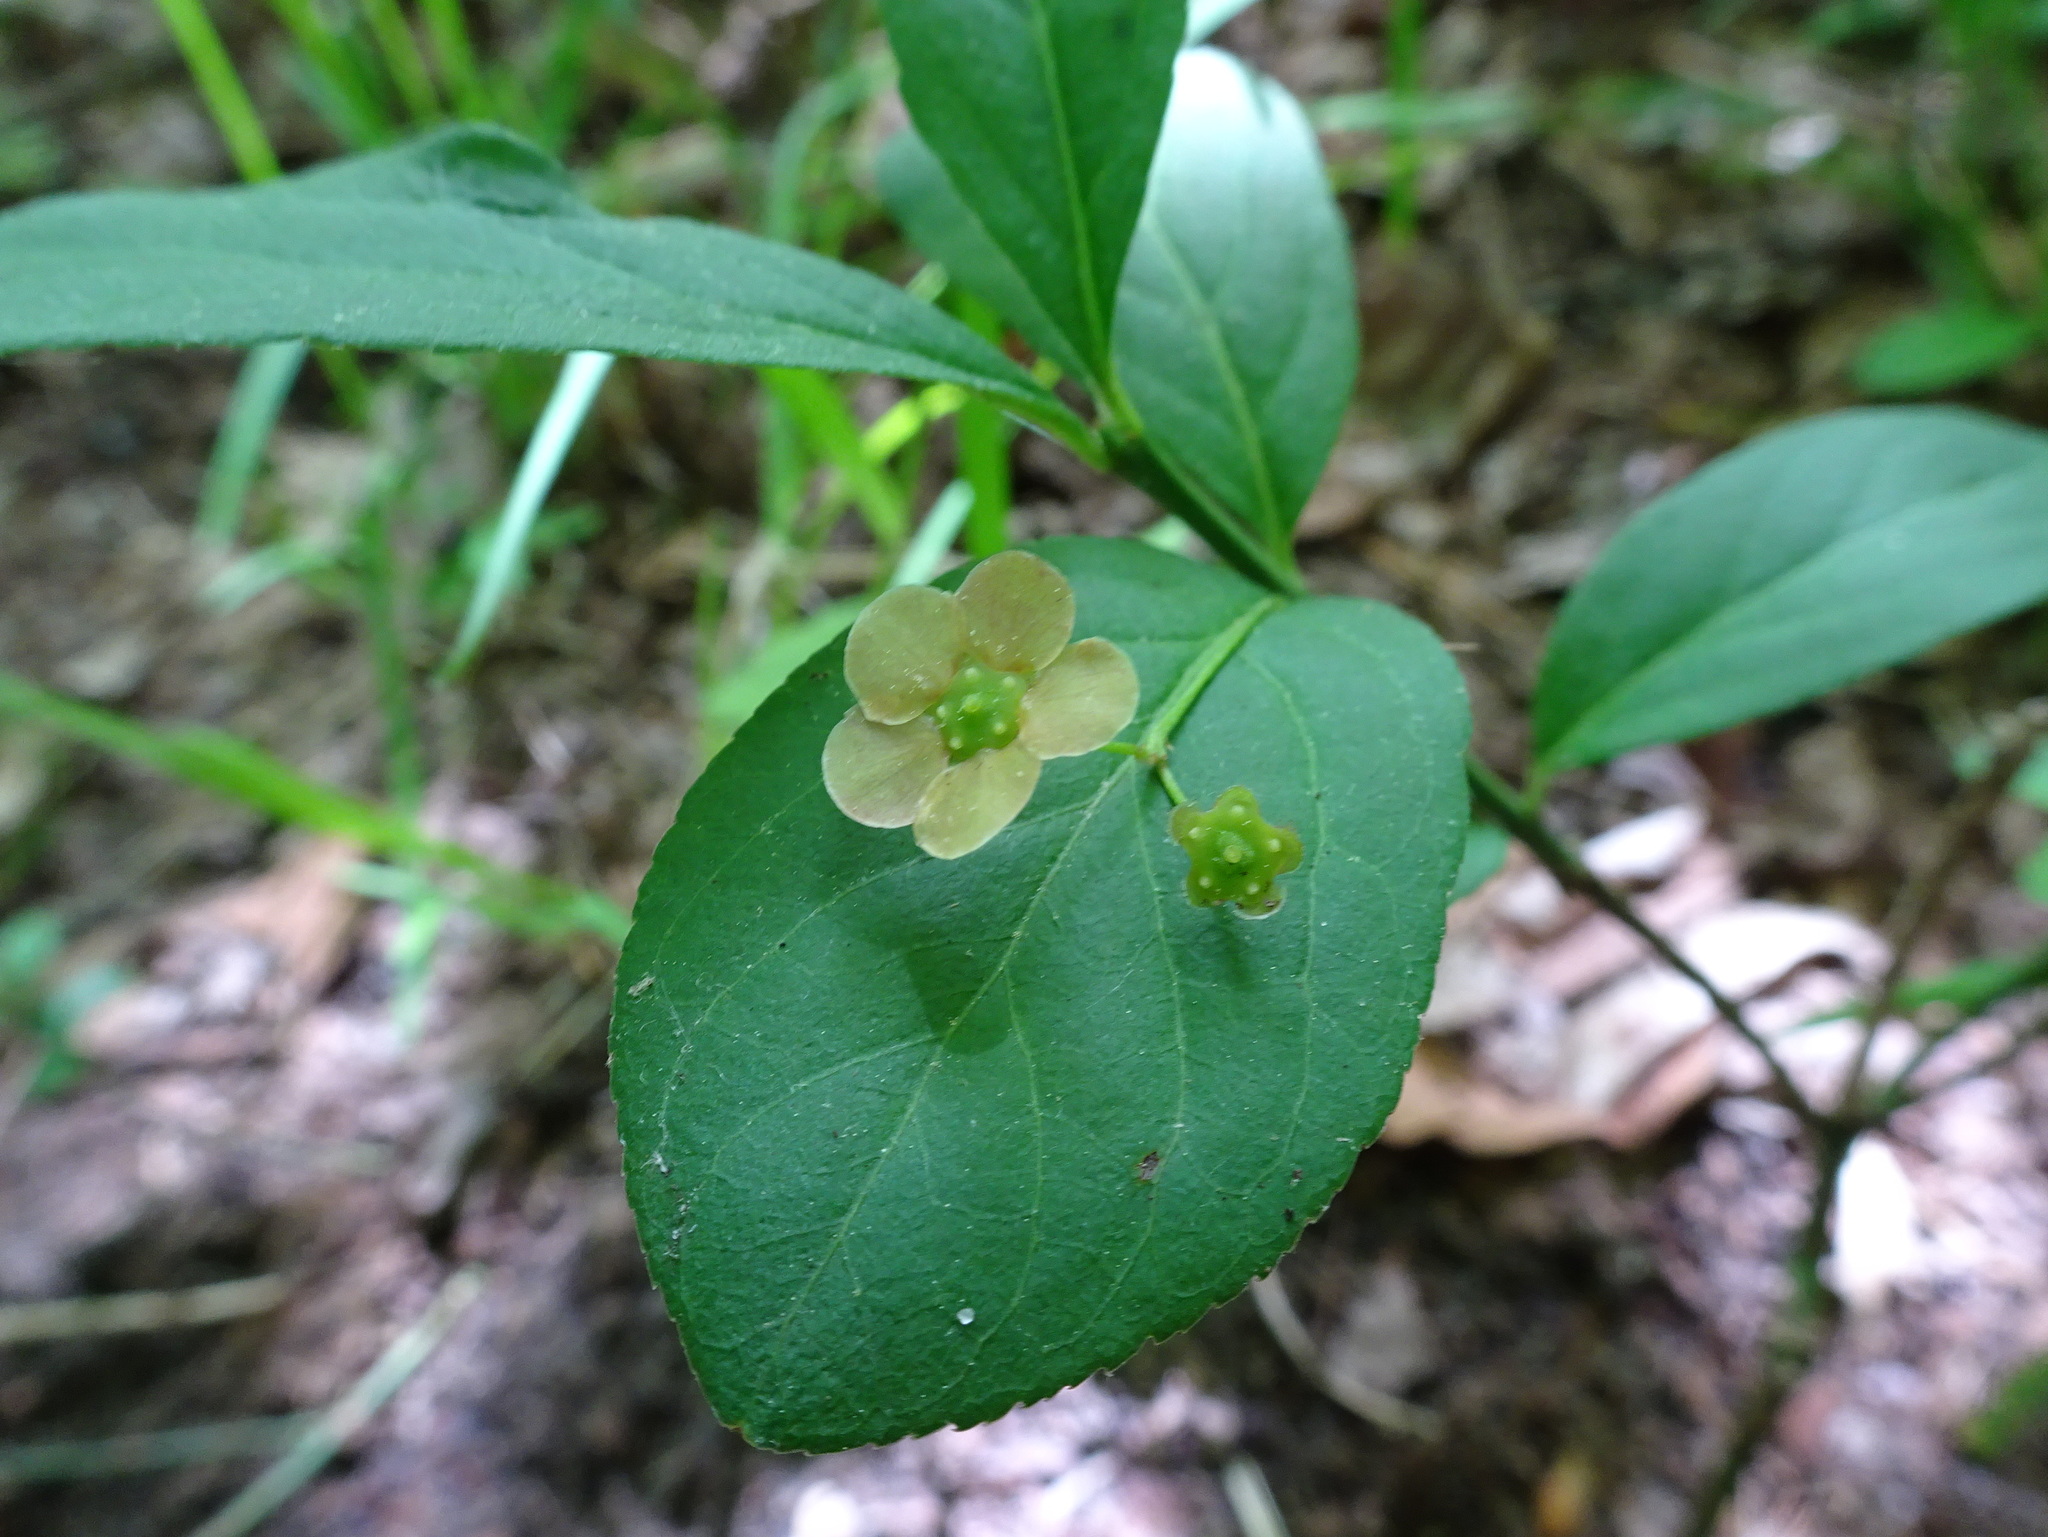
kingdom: Plantae
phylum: Tracheophyta
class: Magnoliopsida
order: Celastrales
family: Celastraceae
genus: Euonymus
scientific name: Euonymus obovatus
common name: Running strawberry-bush
